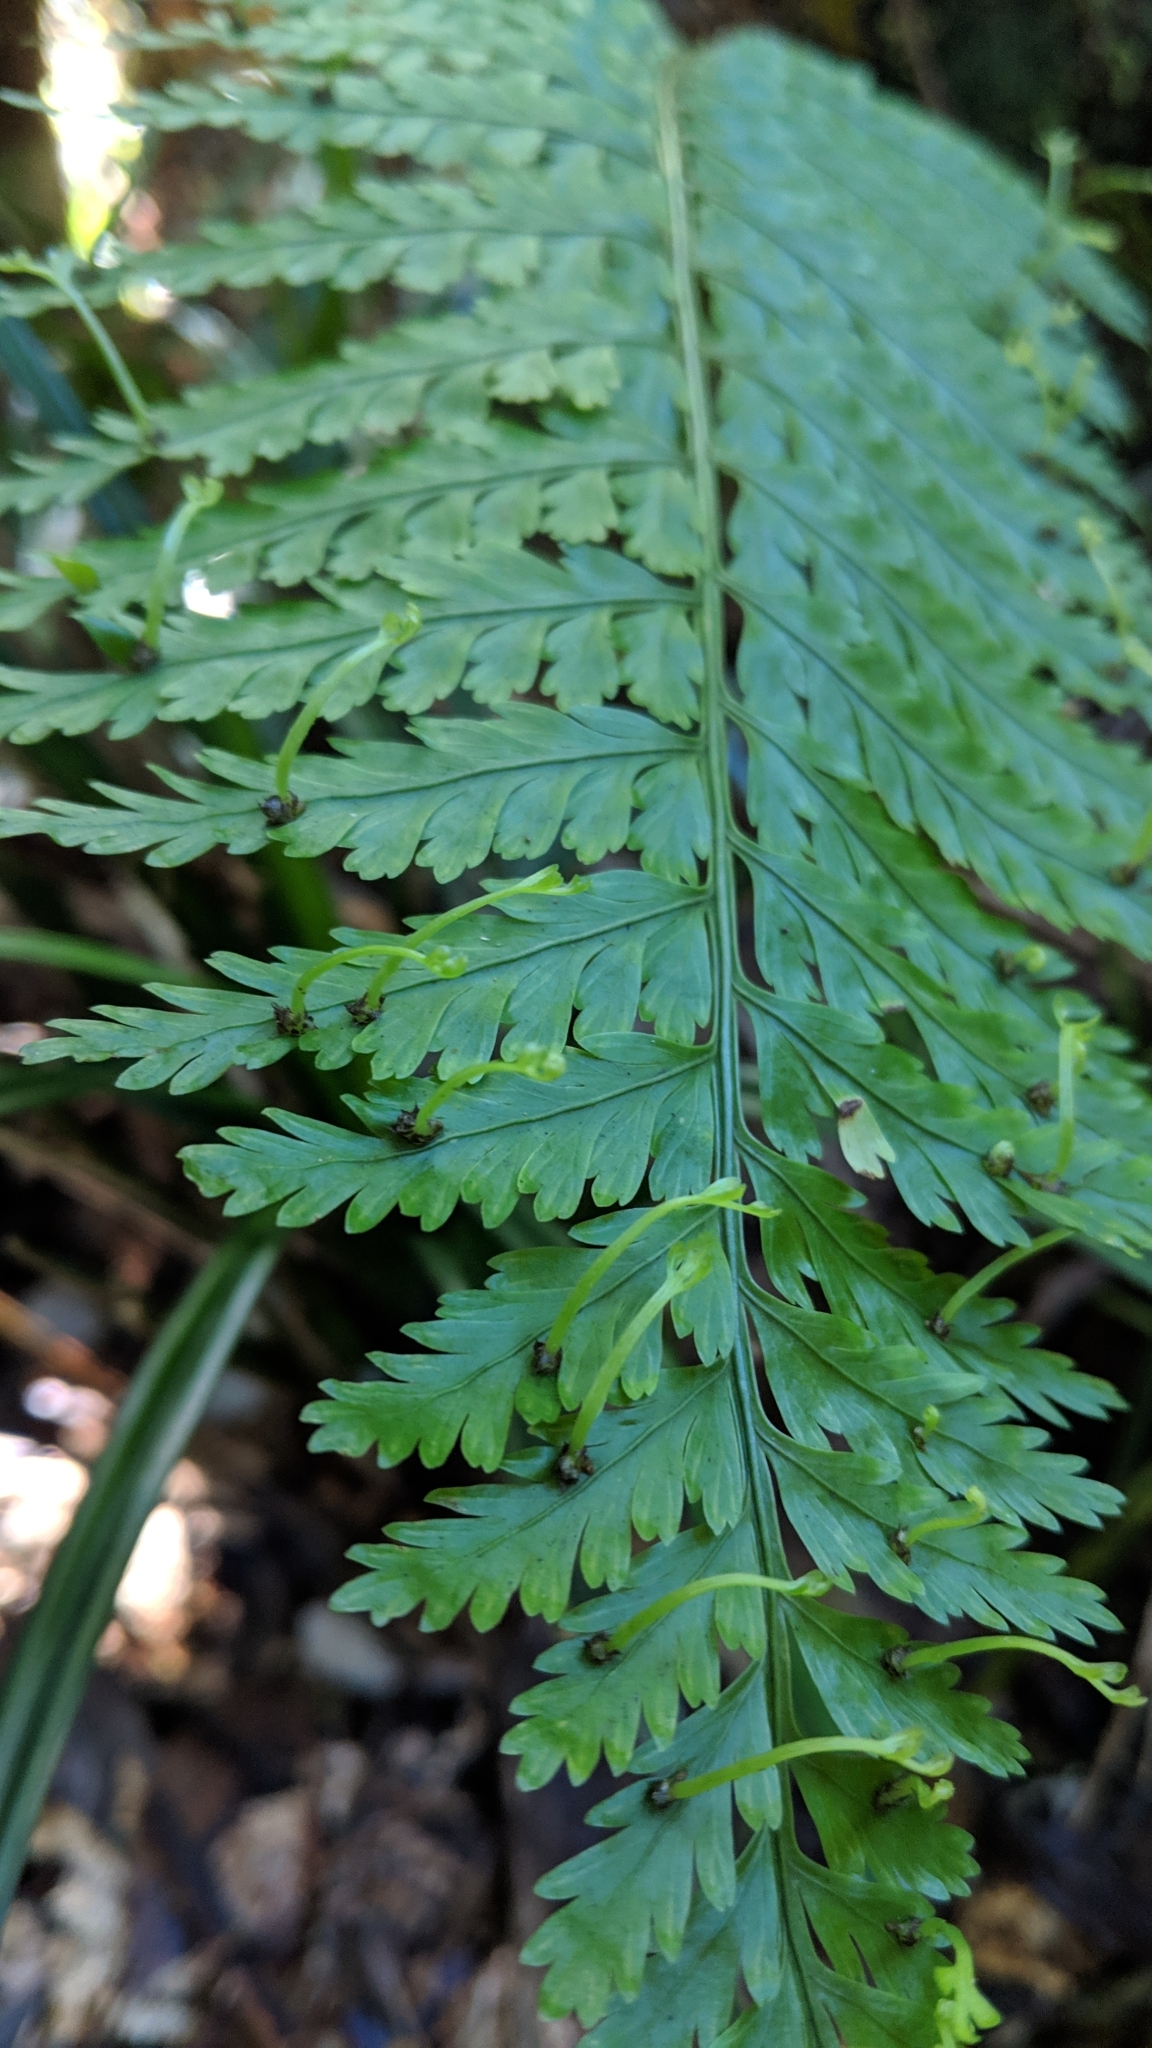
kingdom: Plantae
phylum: Tracheophyta
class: Polypodiopsida
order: Polypodiales
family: Aspleniaceae
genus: Asplenium
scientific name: Asplenium bulbiferum
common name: Mother fern
